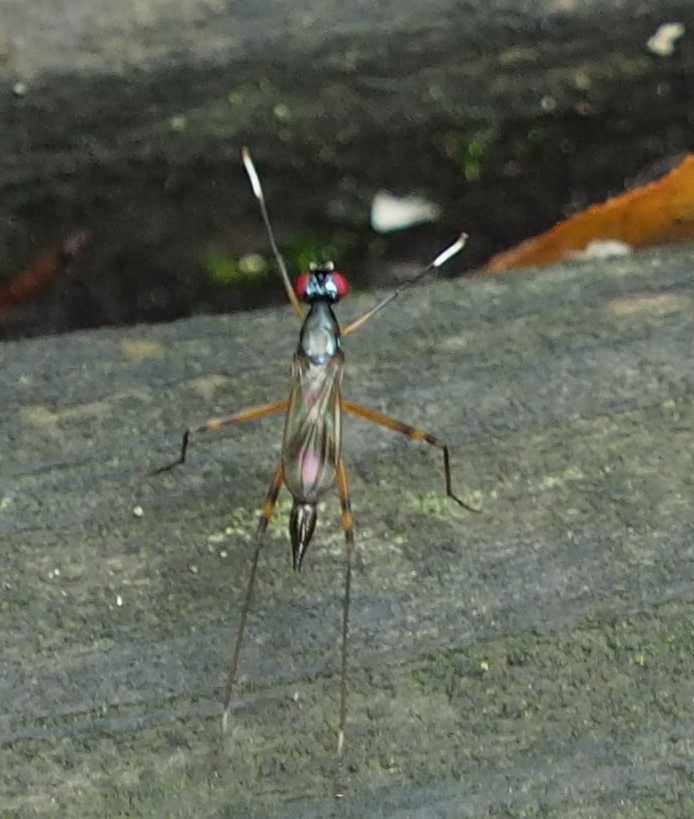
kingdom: Animalia
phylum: Arthropoda
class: Insecta
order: Diptera
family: Micropezidae
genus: Rainieria
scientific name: Rainieria antennaepes
